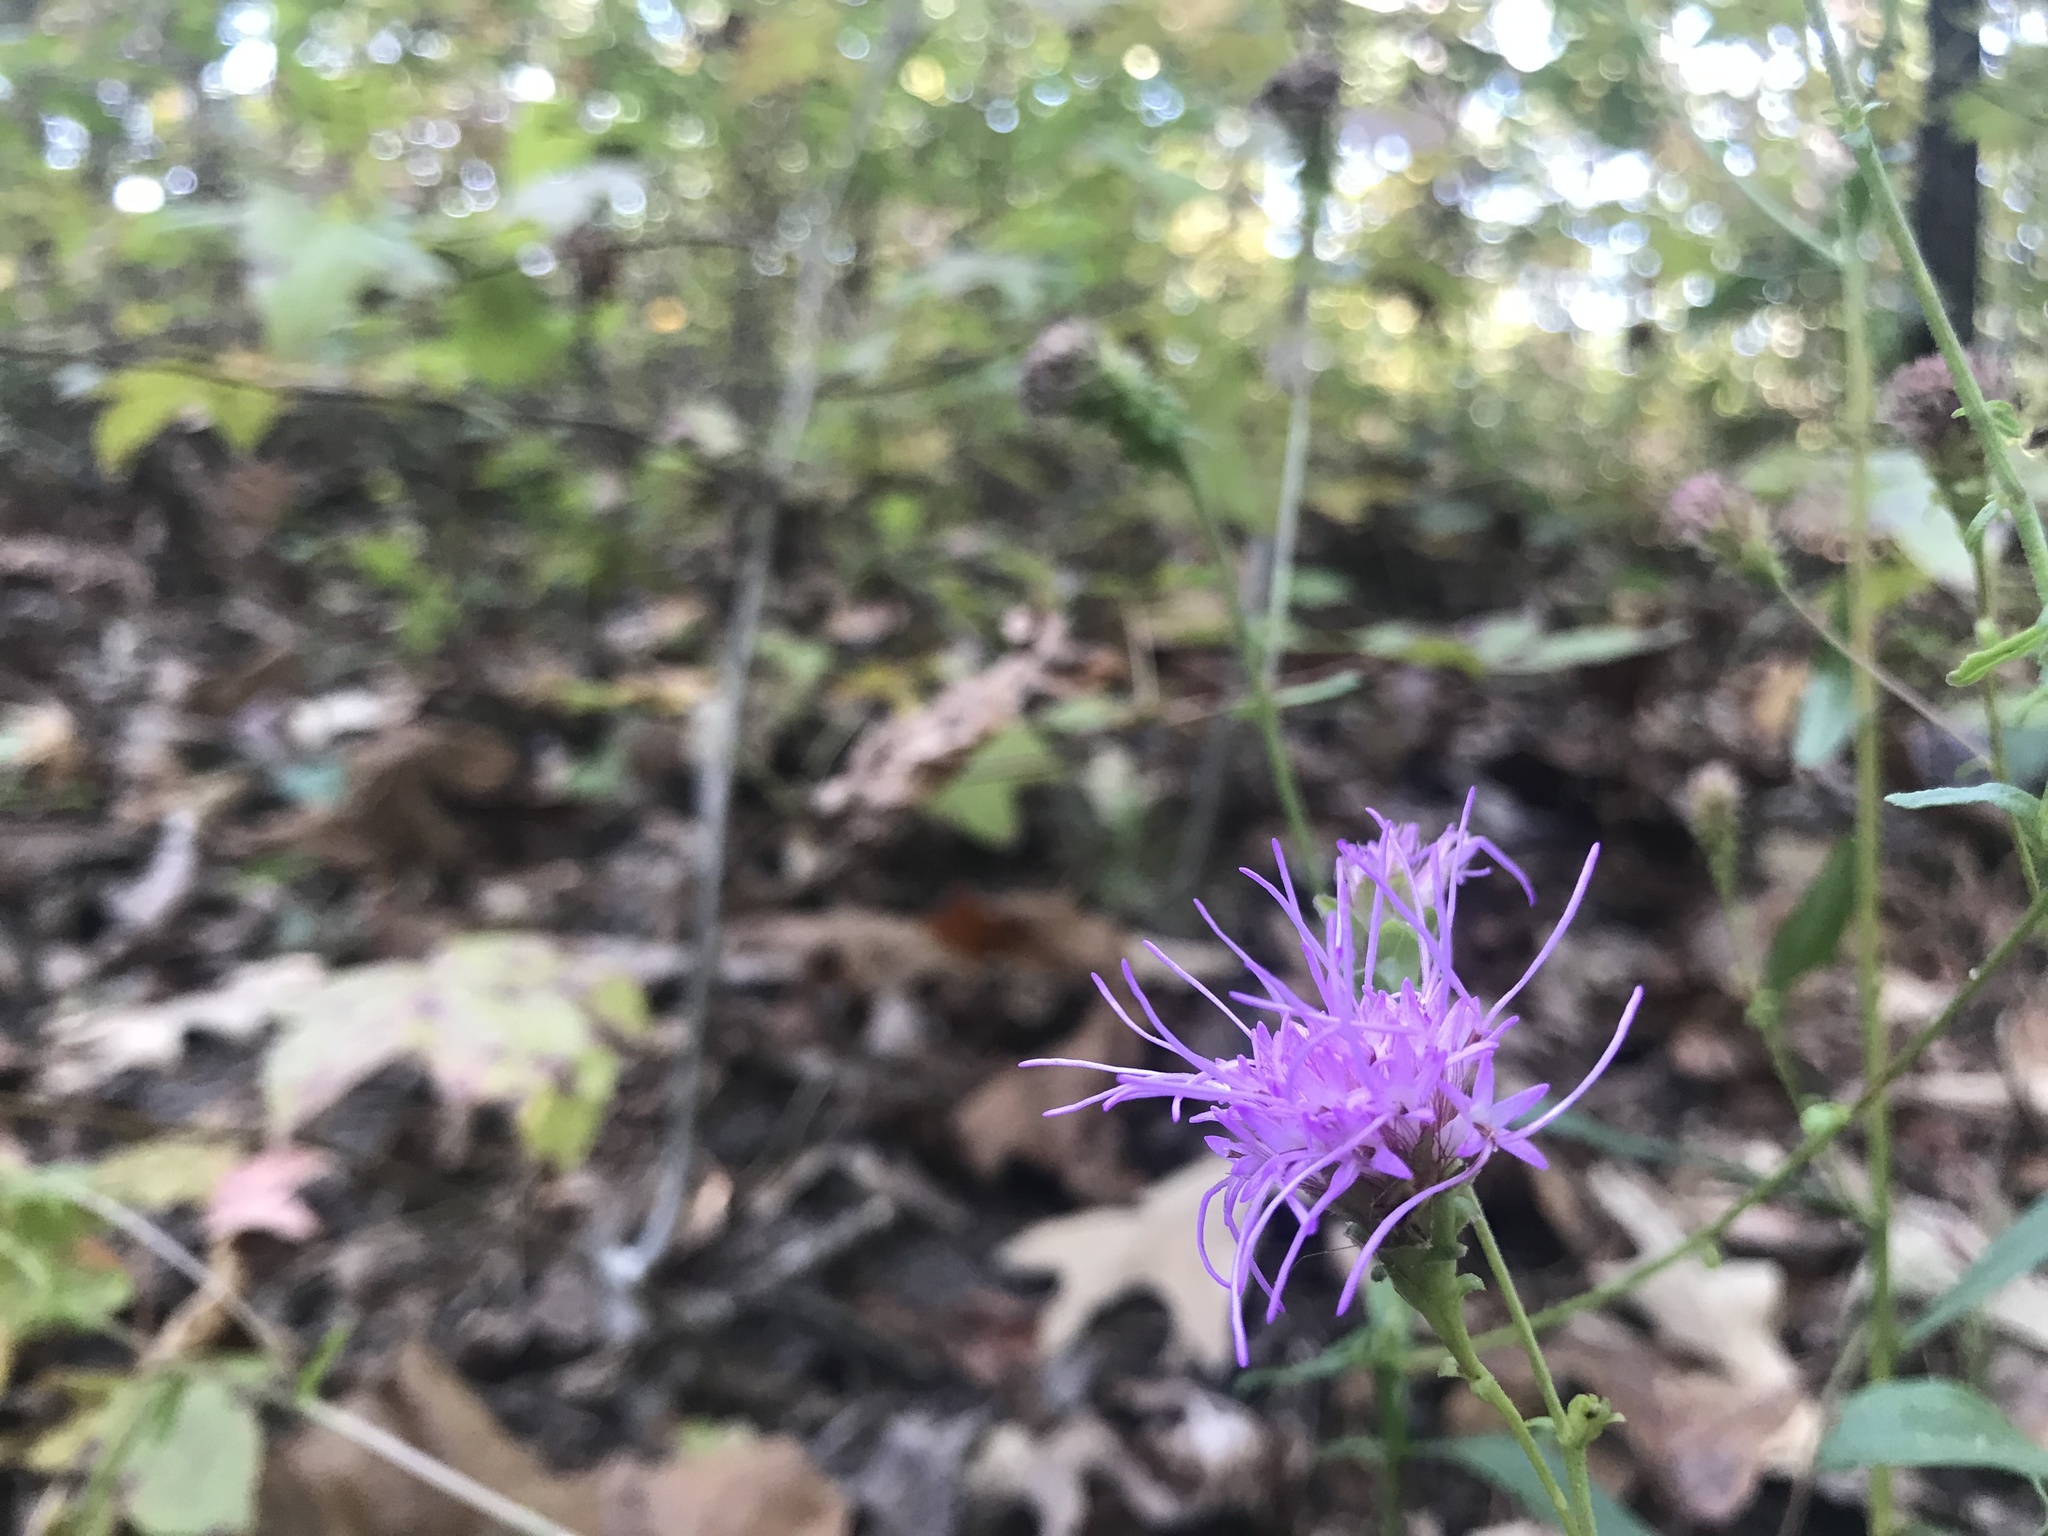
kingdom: Plantae
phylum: Tracheophyta
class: Magnoliopsida
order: Asterales
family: Asteraceae
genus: Carphephorus
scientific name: Carphephorus bellidifolius
